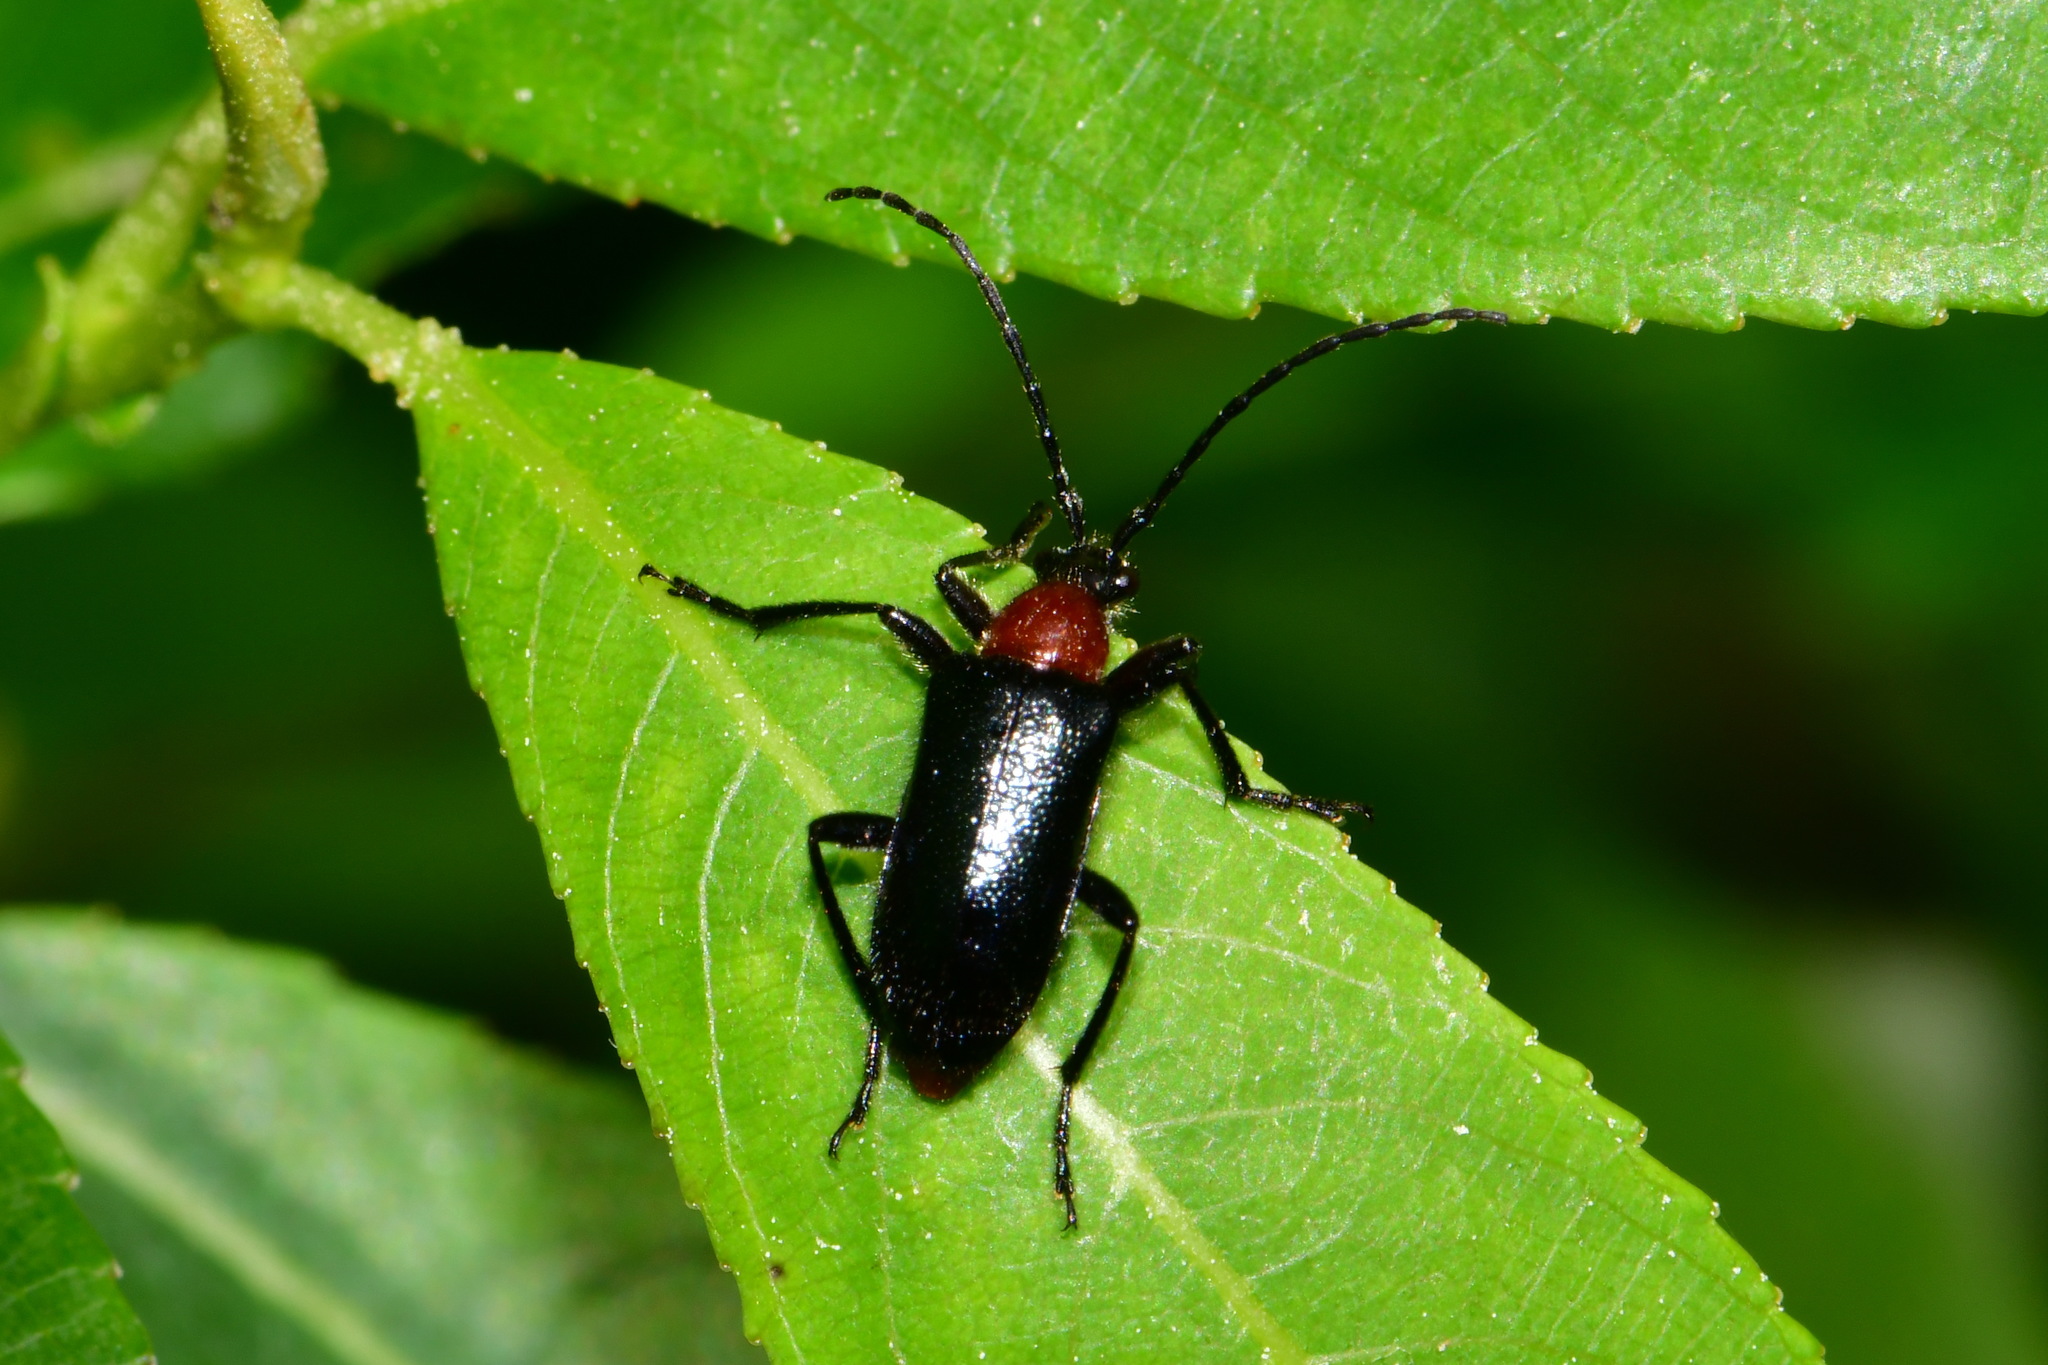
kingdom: Animalia
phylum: Arthropoda
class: Insecta
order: Coleoptera
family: Cerambycidae
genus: Dinoptera
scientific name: Dinoptera collaris
